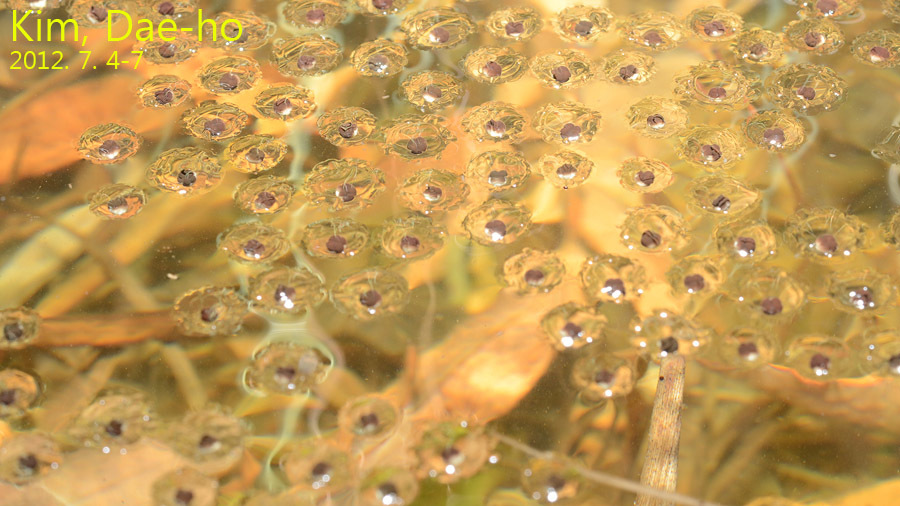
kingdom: Animalia
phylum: Chordata
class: Amphibia
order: Anura
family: Microhylidae
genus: Kaloula
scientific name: Kaloula borealis
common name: Boreal digging frog
